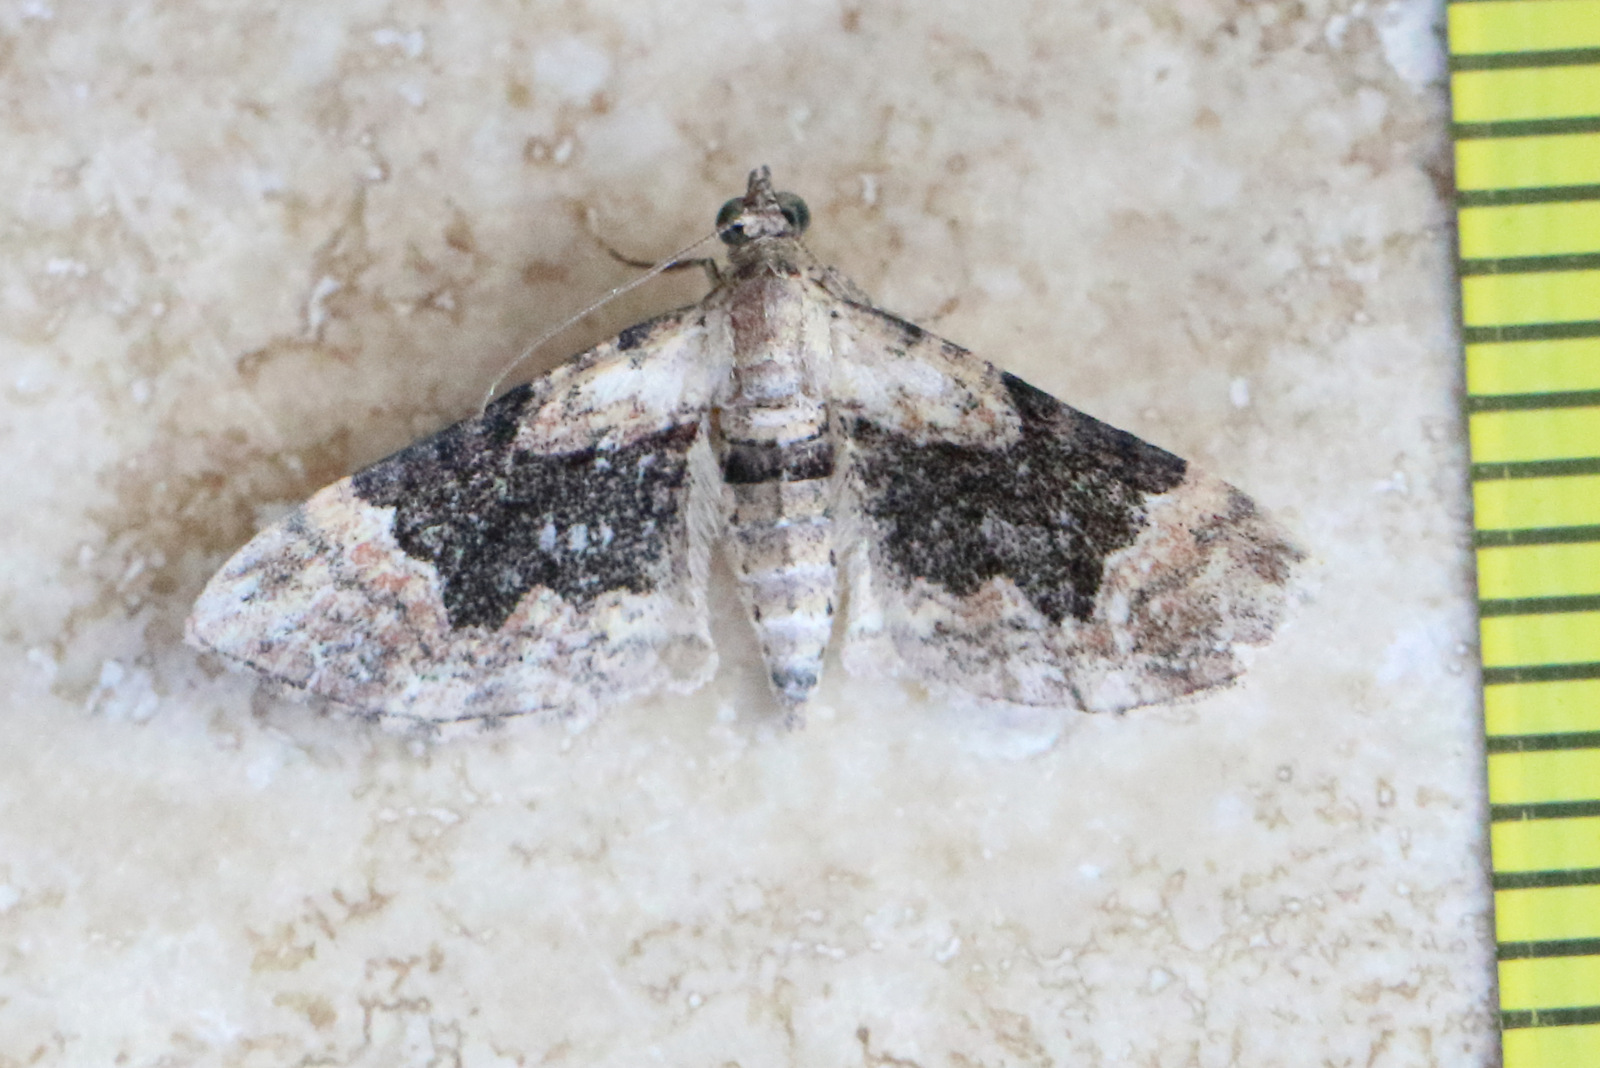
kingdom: Animalia
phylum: Arthropoda
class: Insecta
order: Lepidoptera
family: Geometridae
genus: Mnesiloba
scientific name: Mnesiloba eupitheciata
